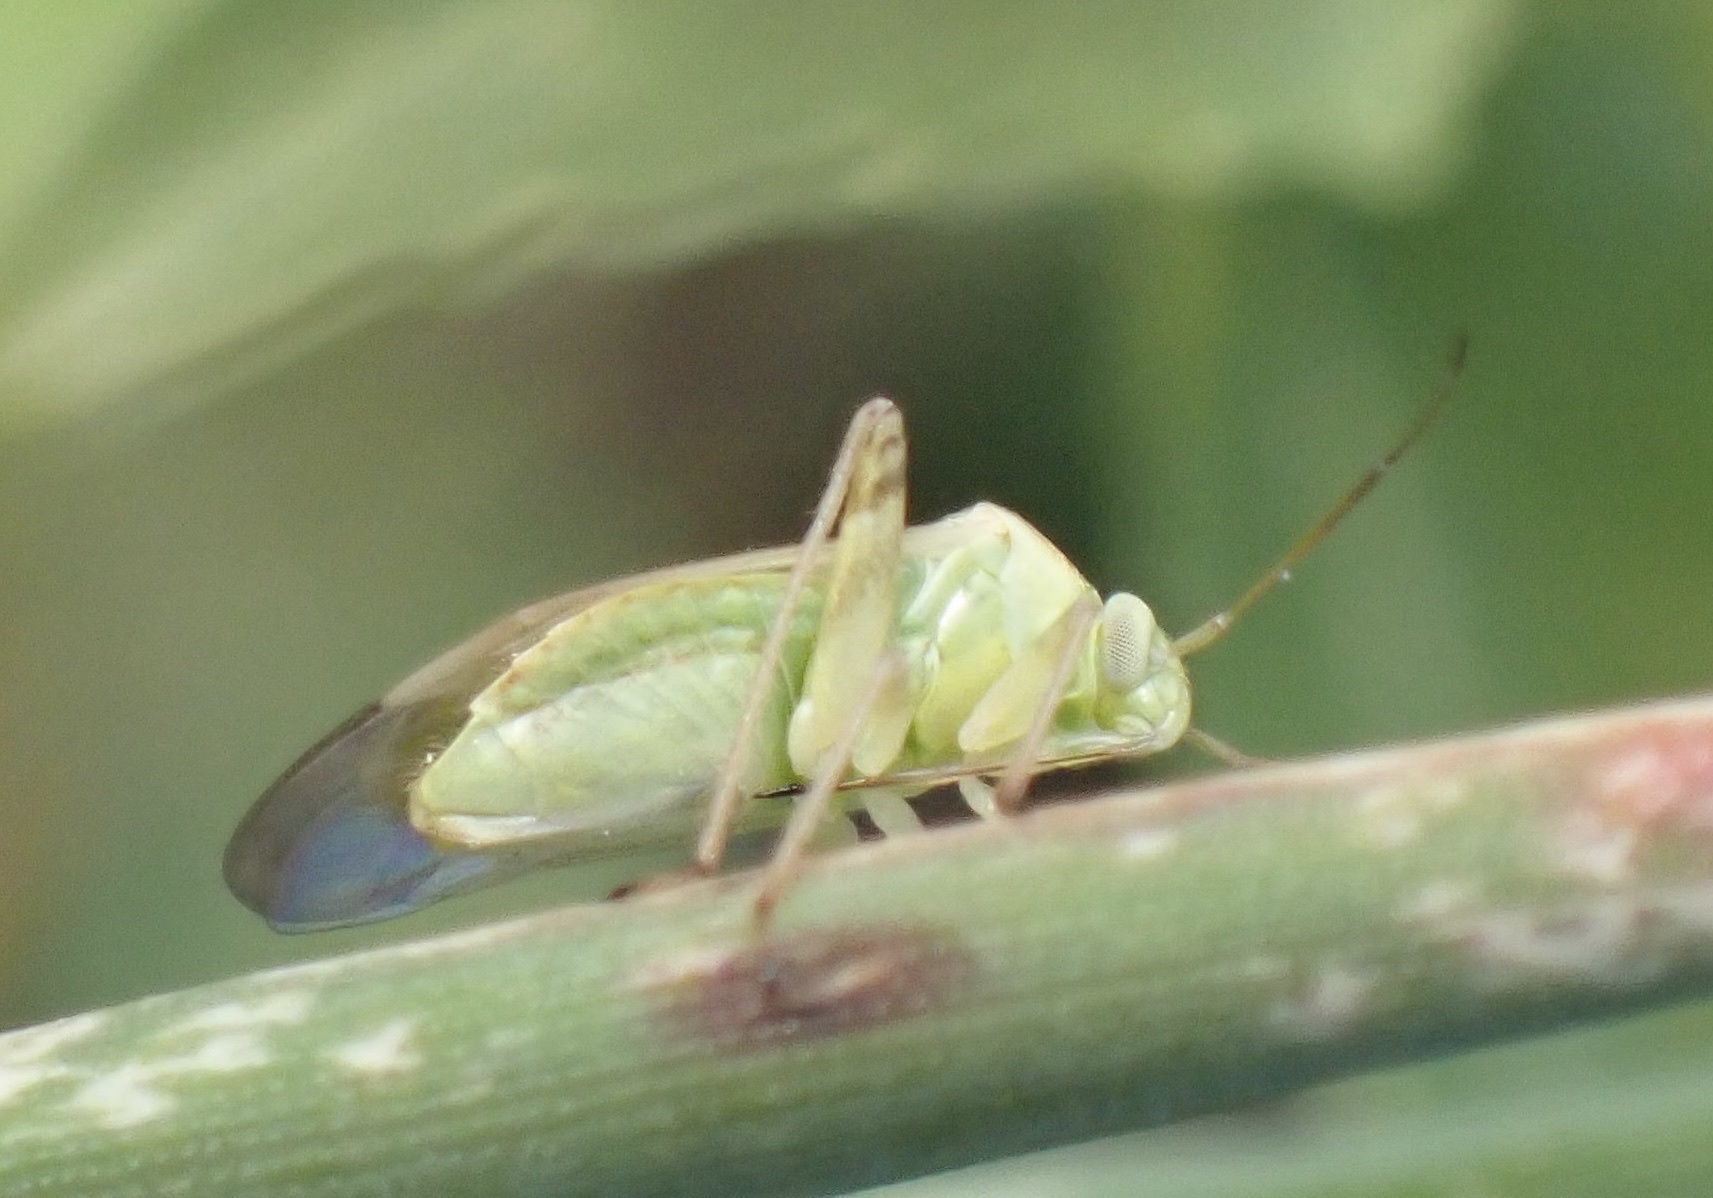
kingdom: Animalia
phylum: Arthropoda
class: Insecta
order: Hemiptera
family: Miridae
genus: Taylorilygus
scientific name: Taylorilygus apicalis
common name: Plant bug
